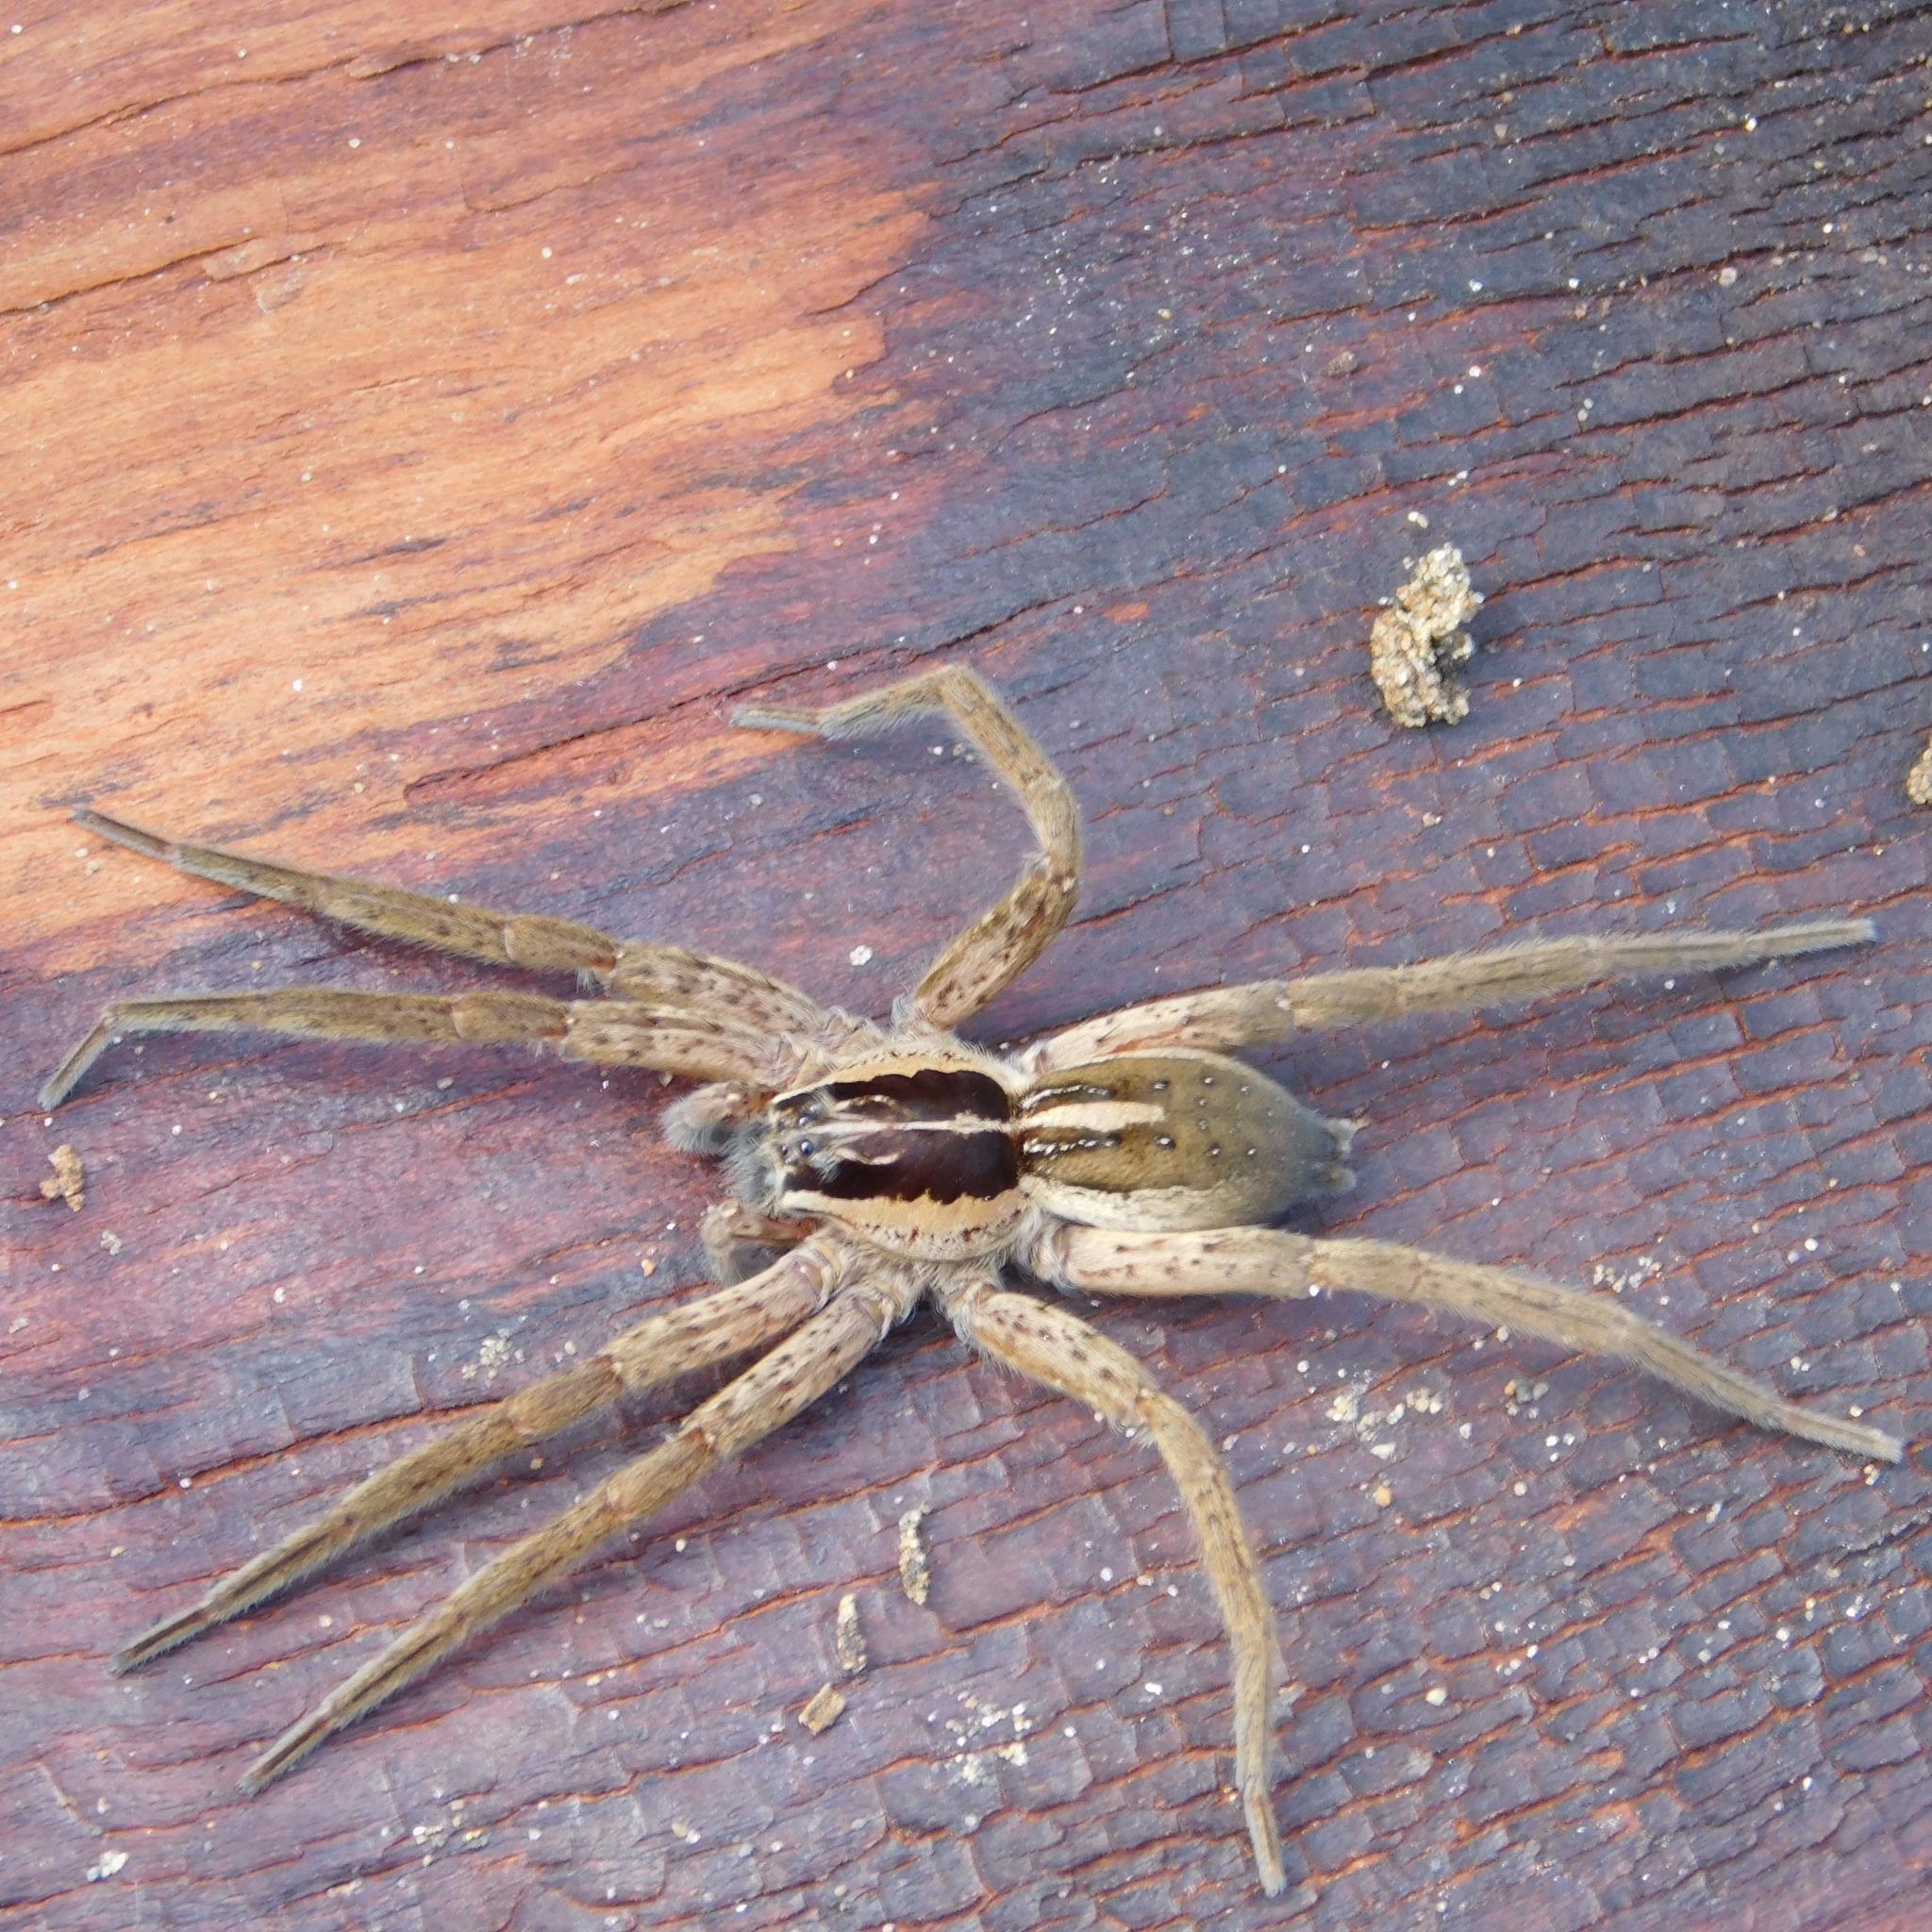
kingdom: Animalia
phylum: Arthropoda
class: Arachnida
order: Araneae
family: Pisauridae
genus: Dolomedes
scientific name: Dolomedes minor
